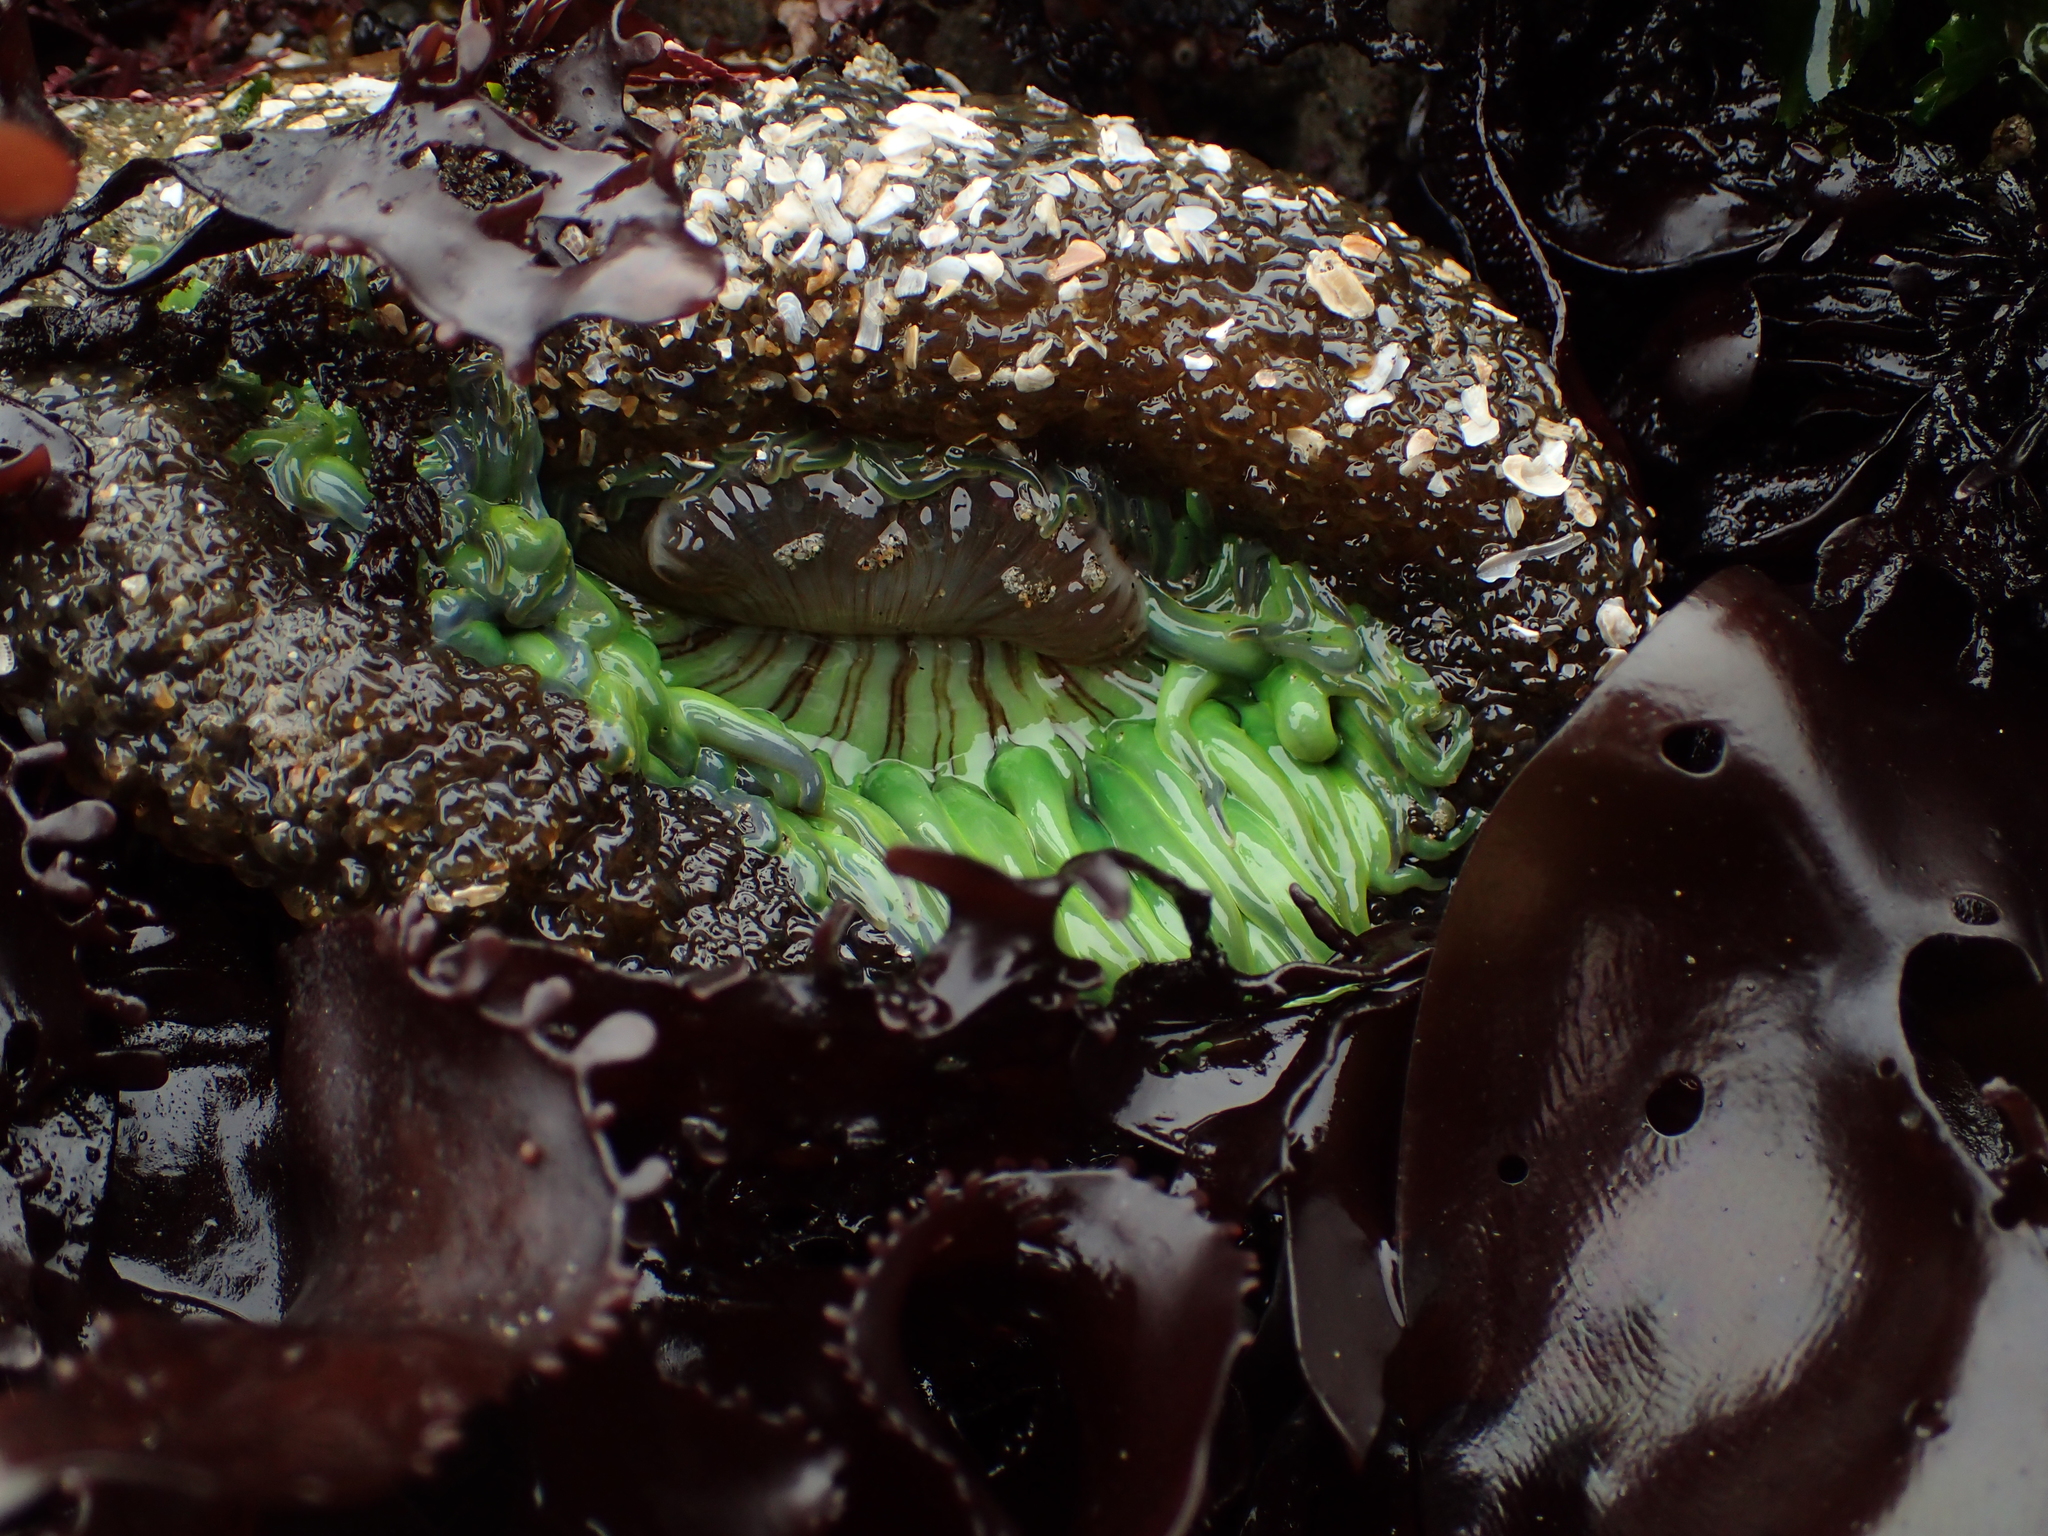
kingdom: Animalia
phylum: Cnidaria
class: Anthozoa
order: Actiniaria
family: Actiniidae
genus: Anthopleura
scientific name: Anthopleura sola
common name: Sun anemone
